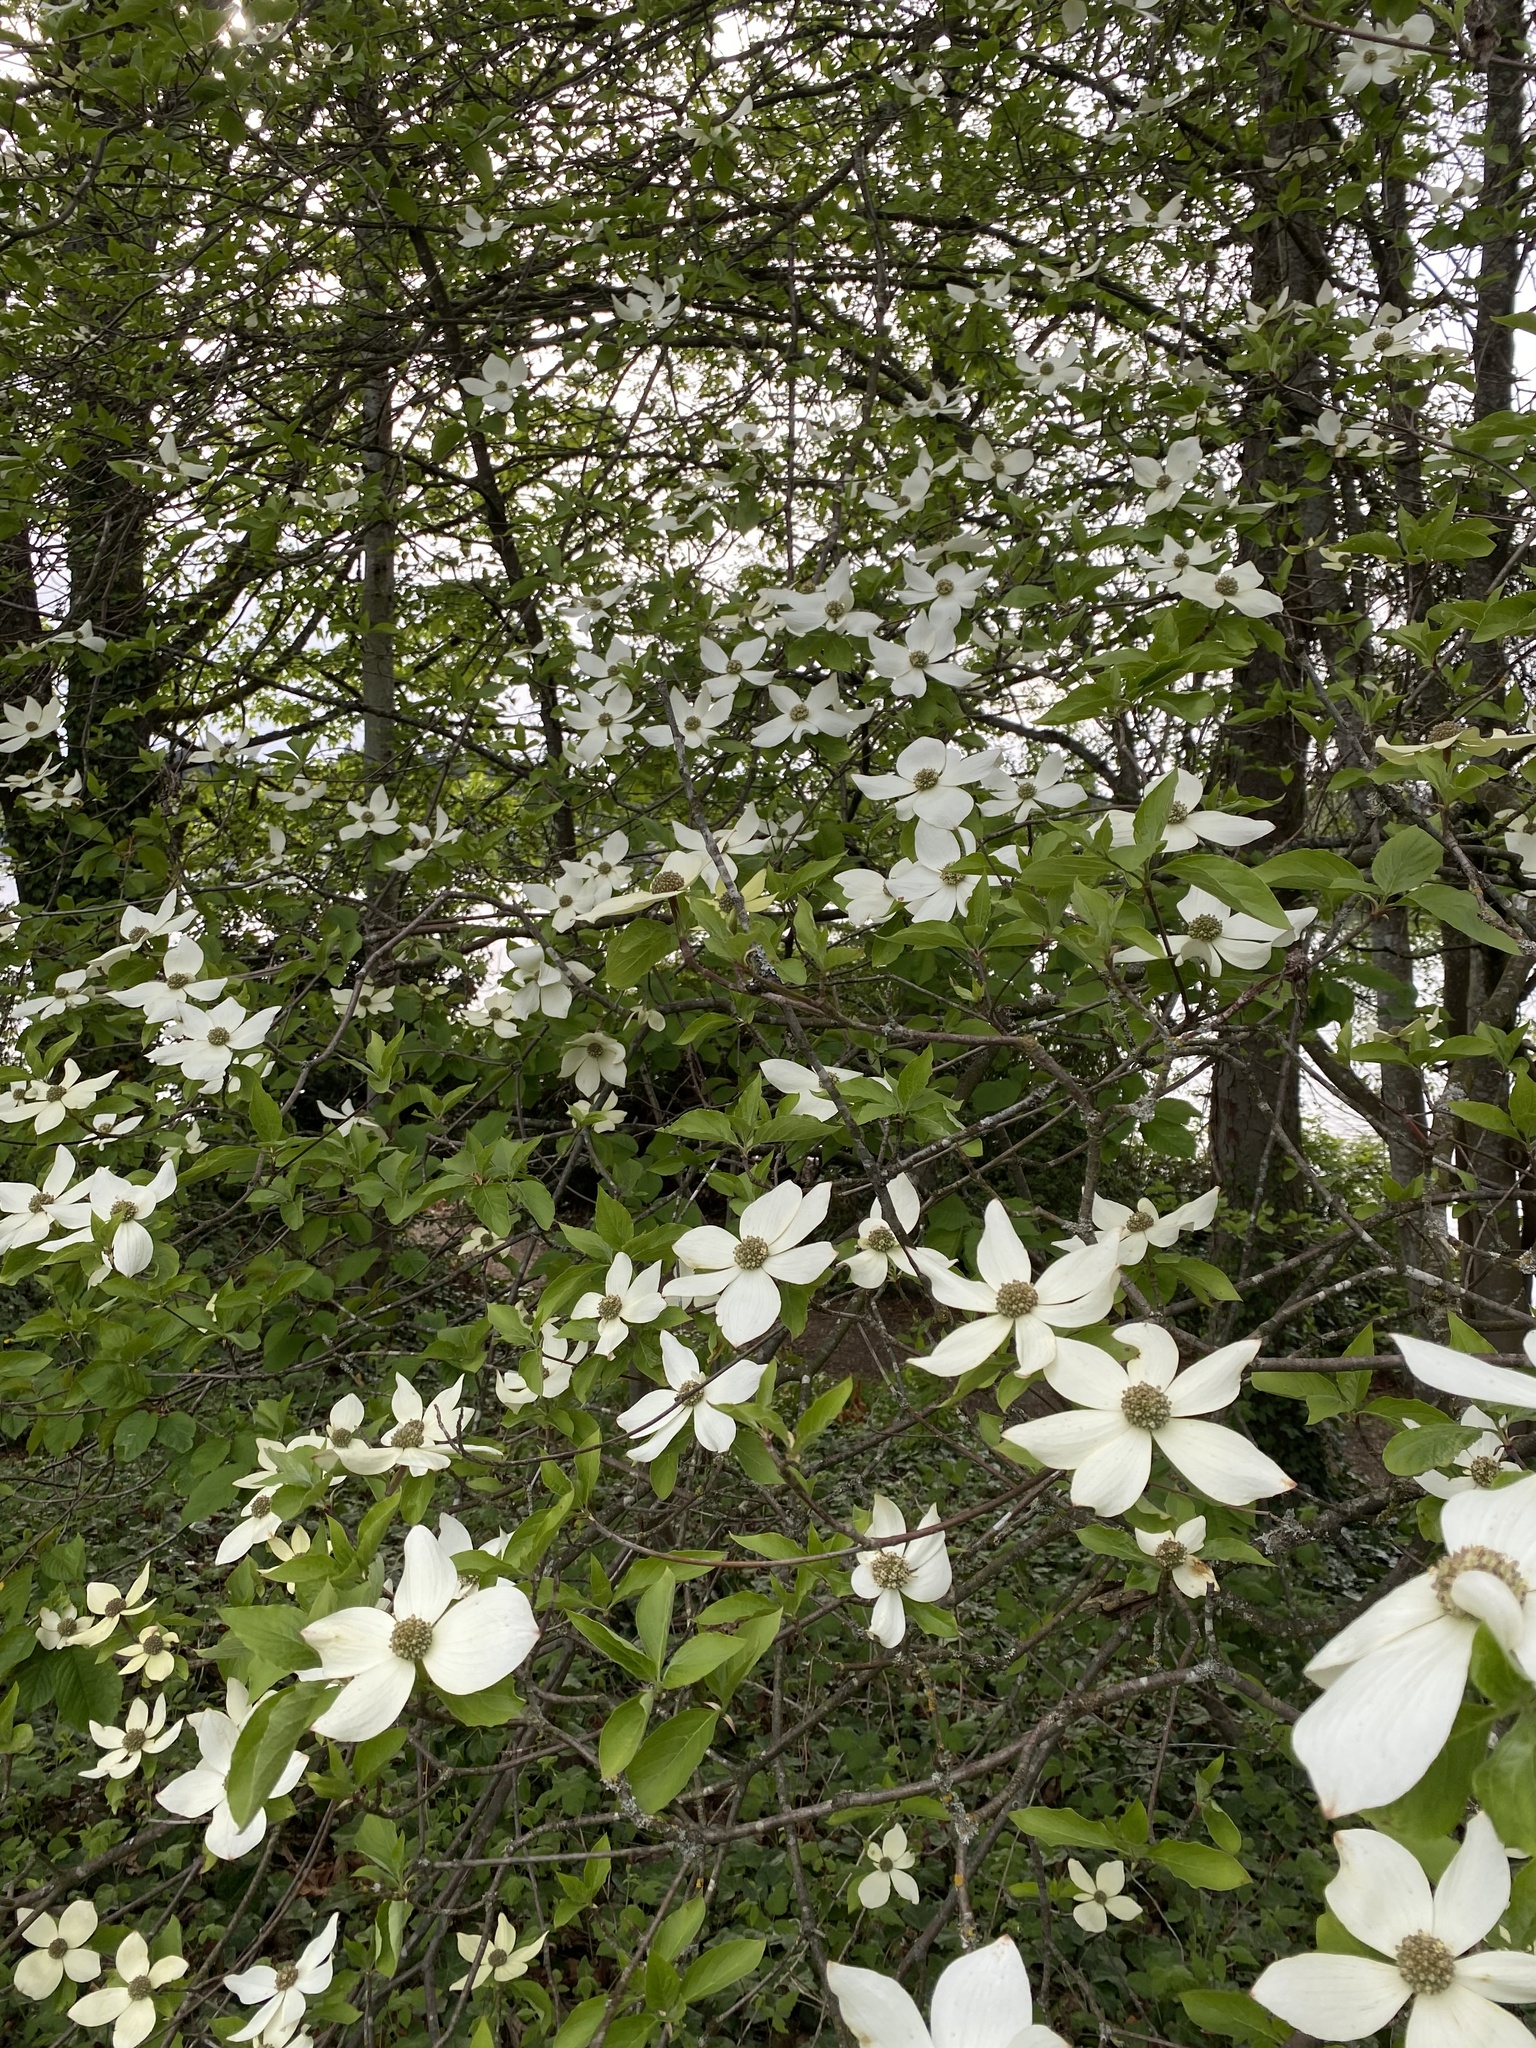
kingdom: Plantae
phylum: Tracheophyta
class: Magnoliopsida
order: Cornales
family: Cornaceae
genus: Cornus
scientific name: Cornus nuttallii
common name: Pacific dogwood
